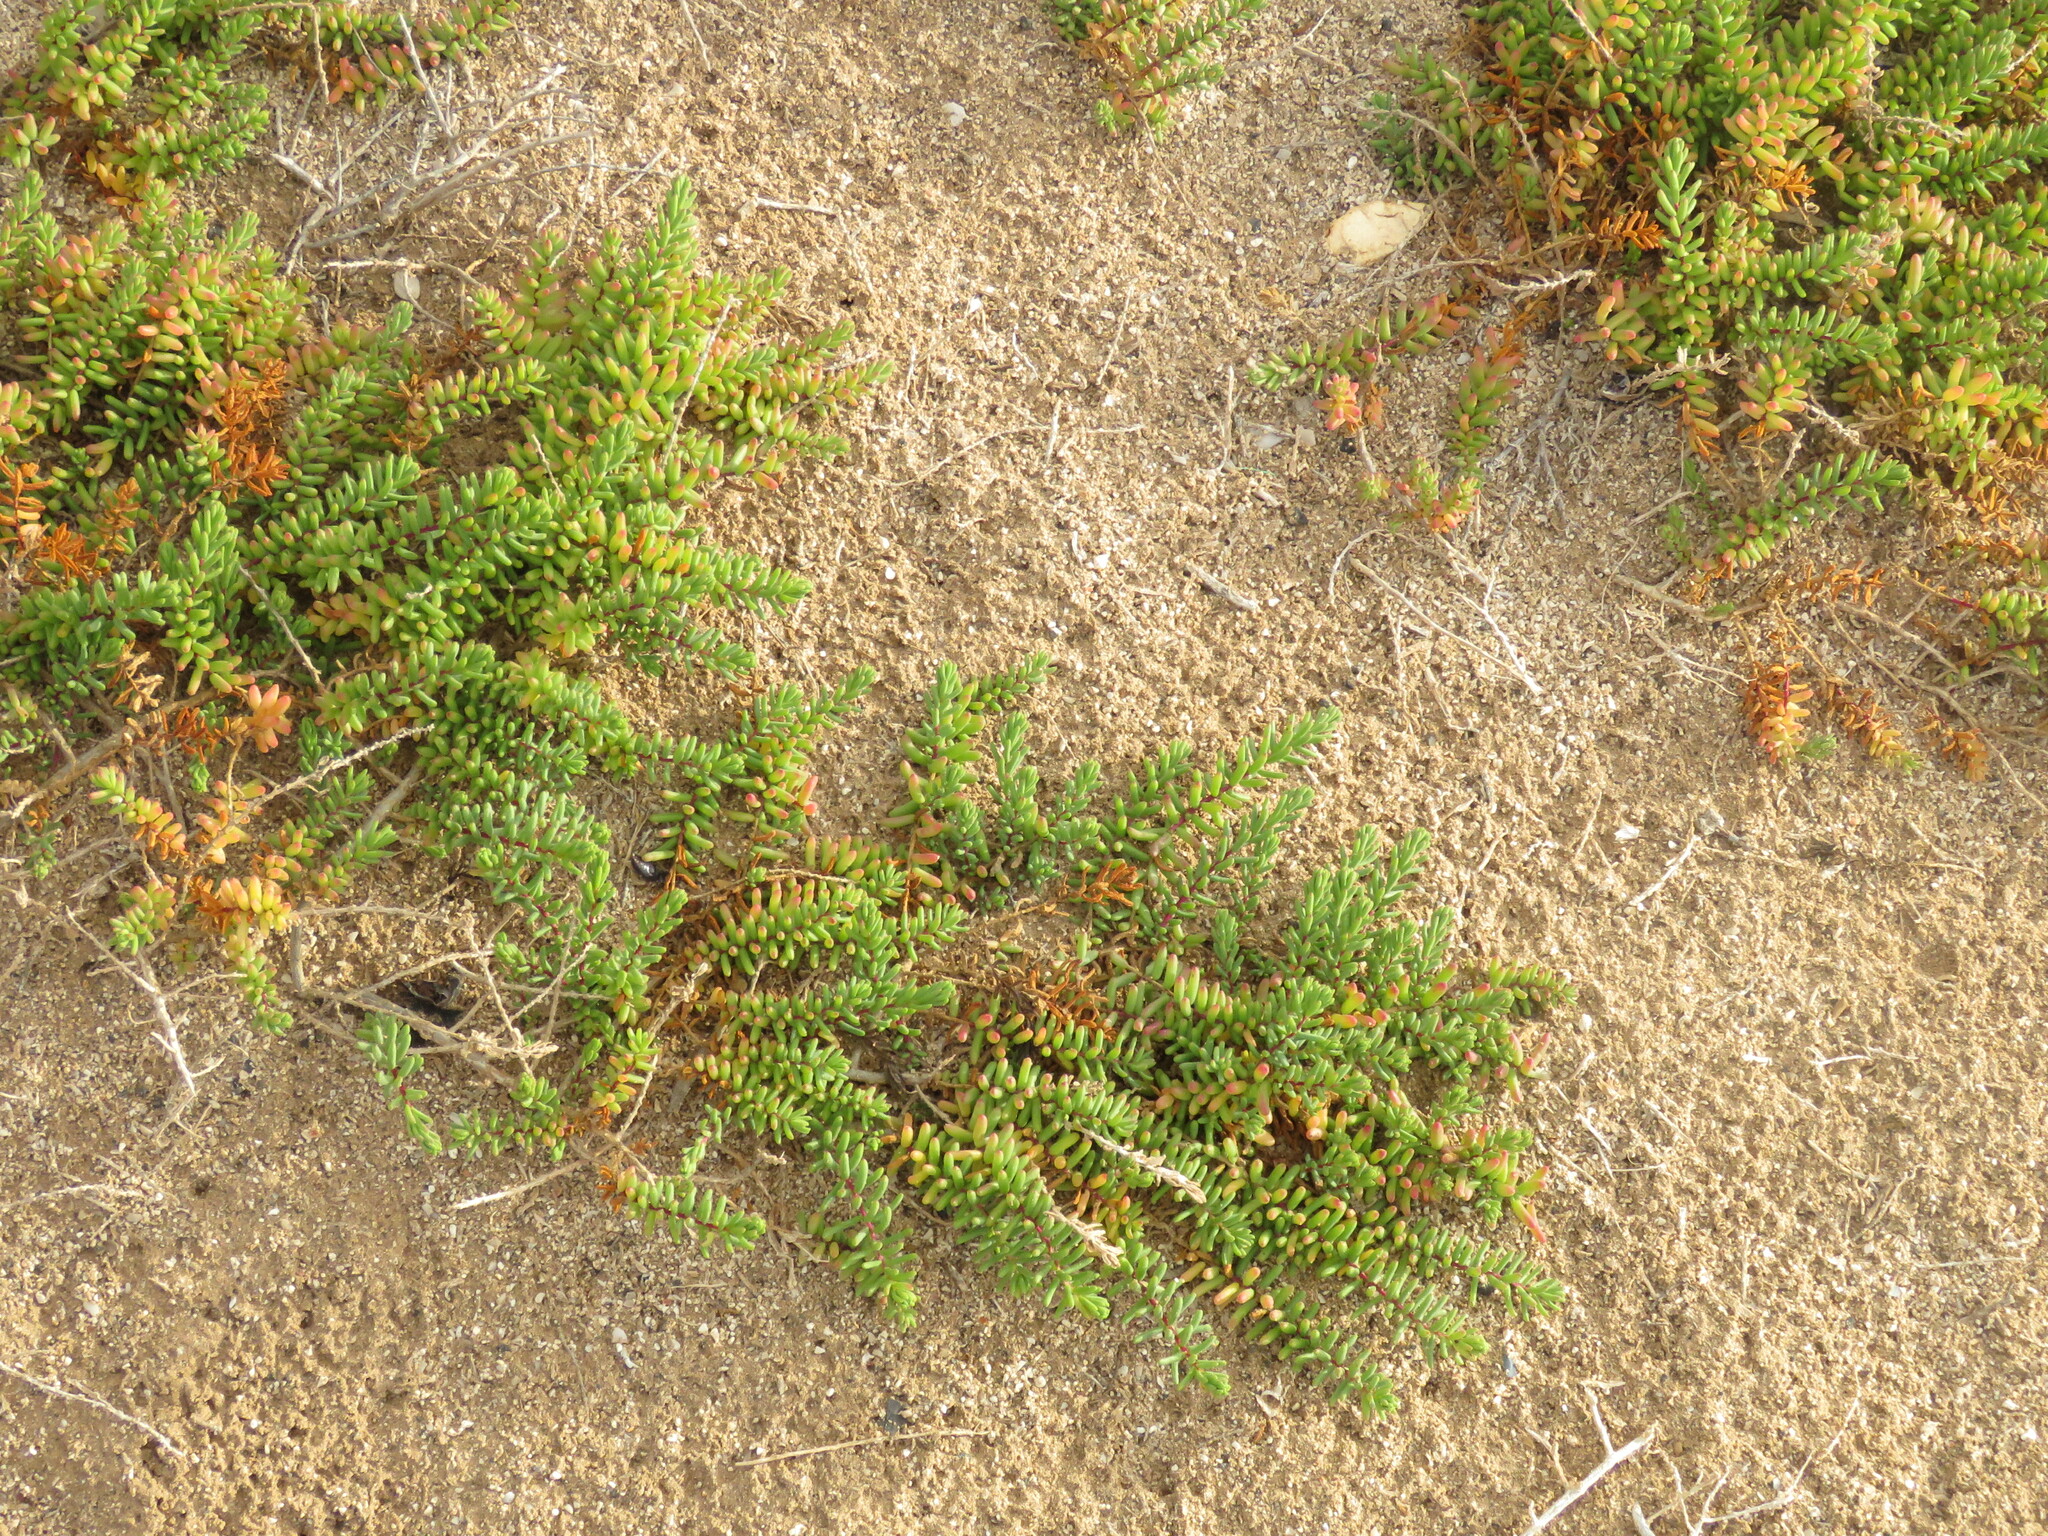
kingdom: Plantae
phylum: Tracheophyta
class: Magnoliopsida
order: Caryophyllales
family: Amaranthaceae
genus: Suaeda
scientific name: Suaeda vera
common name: Shrubby sea-blite
